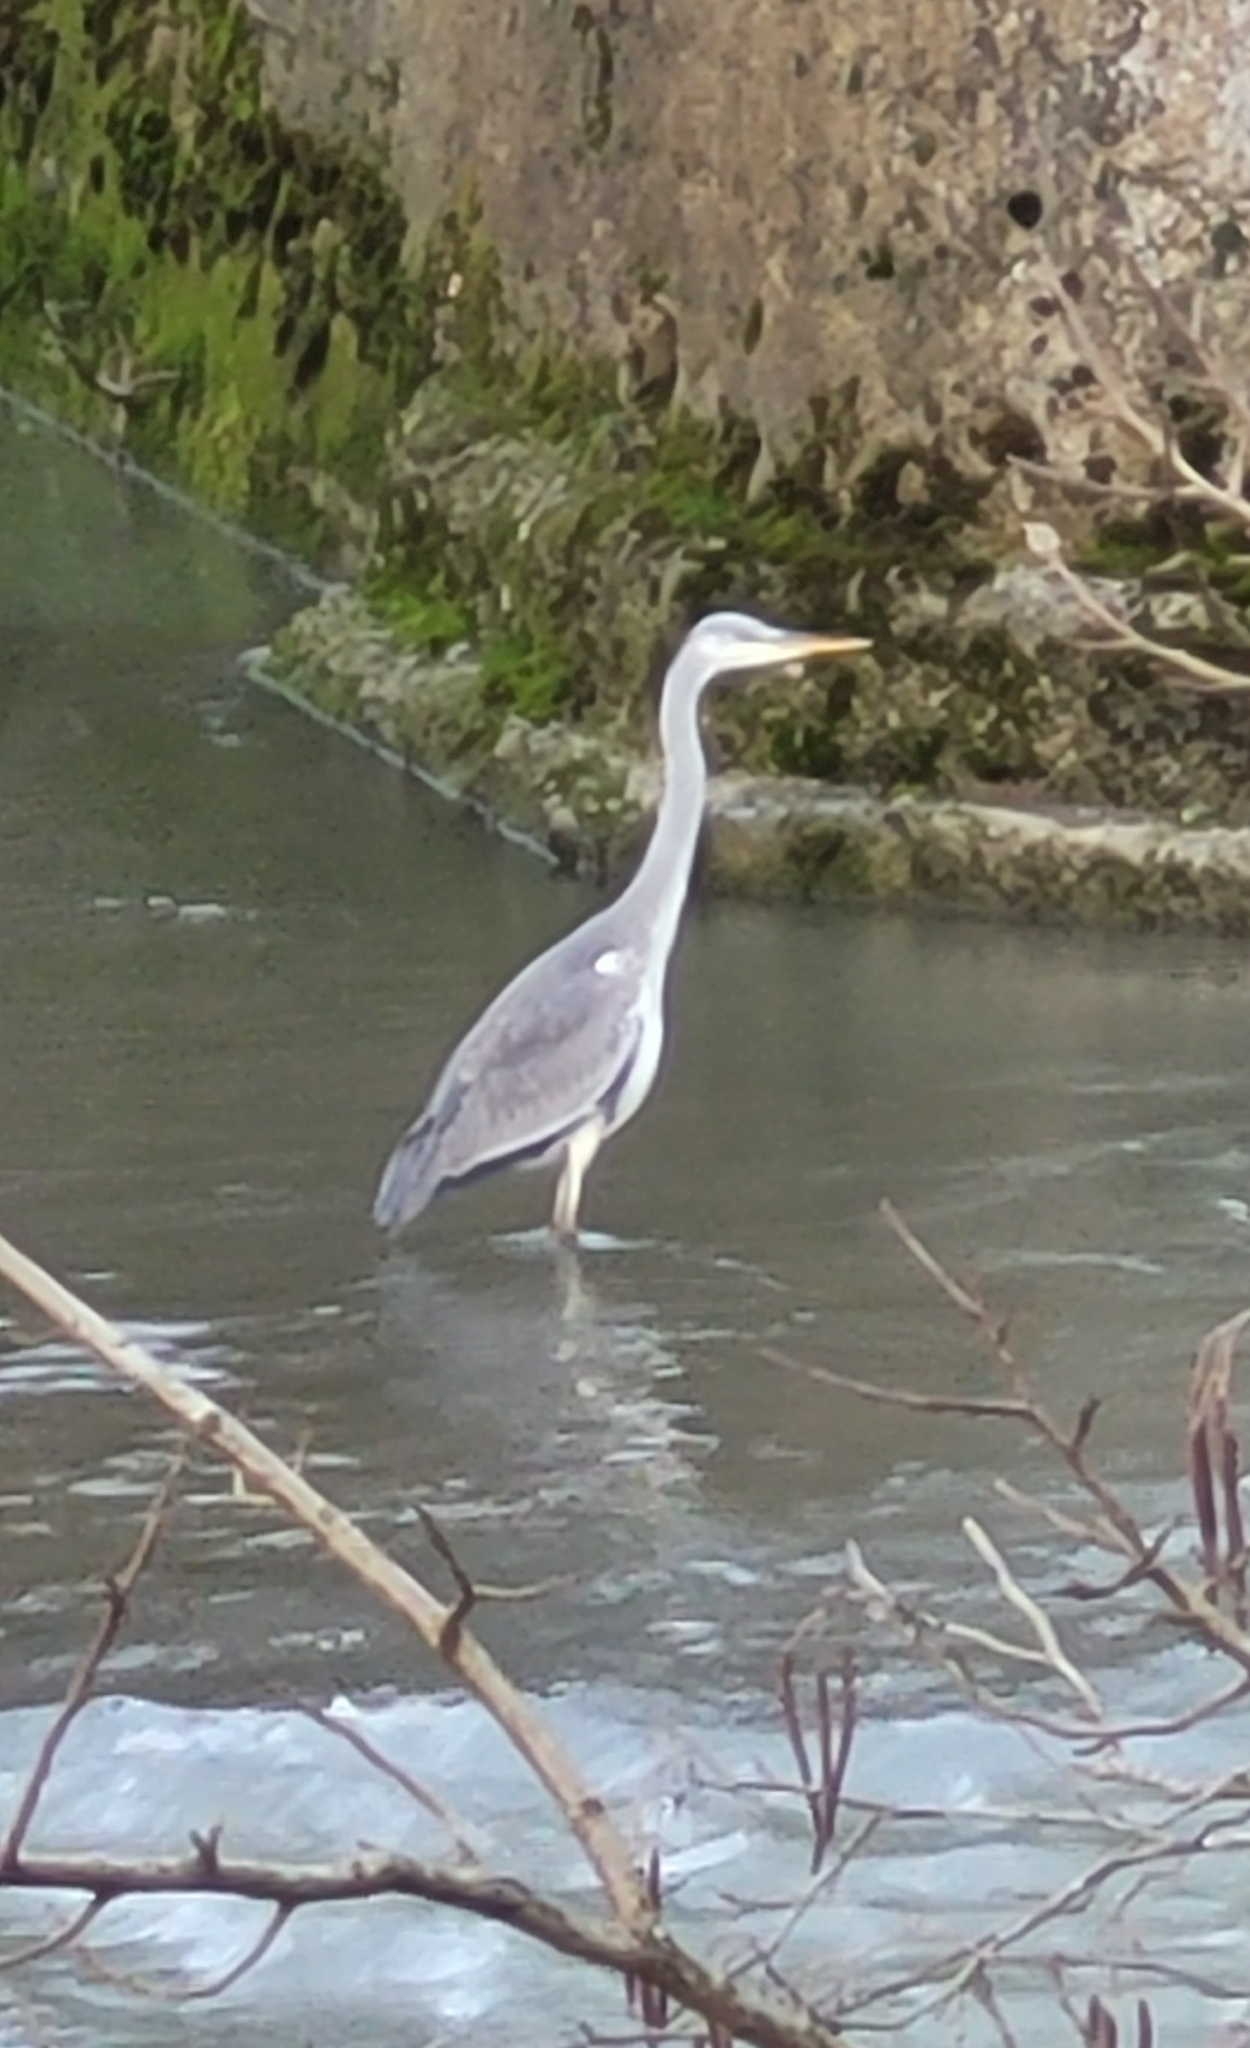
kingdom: Animalia
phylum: Chordata
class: Aves
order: Pelecaniformes
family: Ardeidae
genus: Ardea
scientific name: Ardea cinerea
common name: Grey heron
